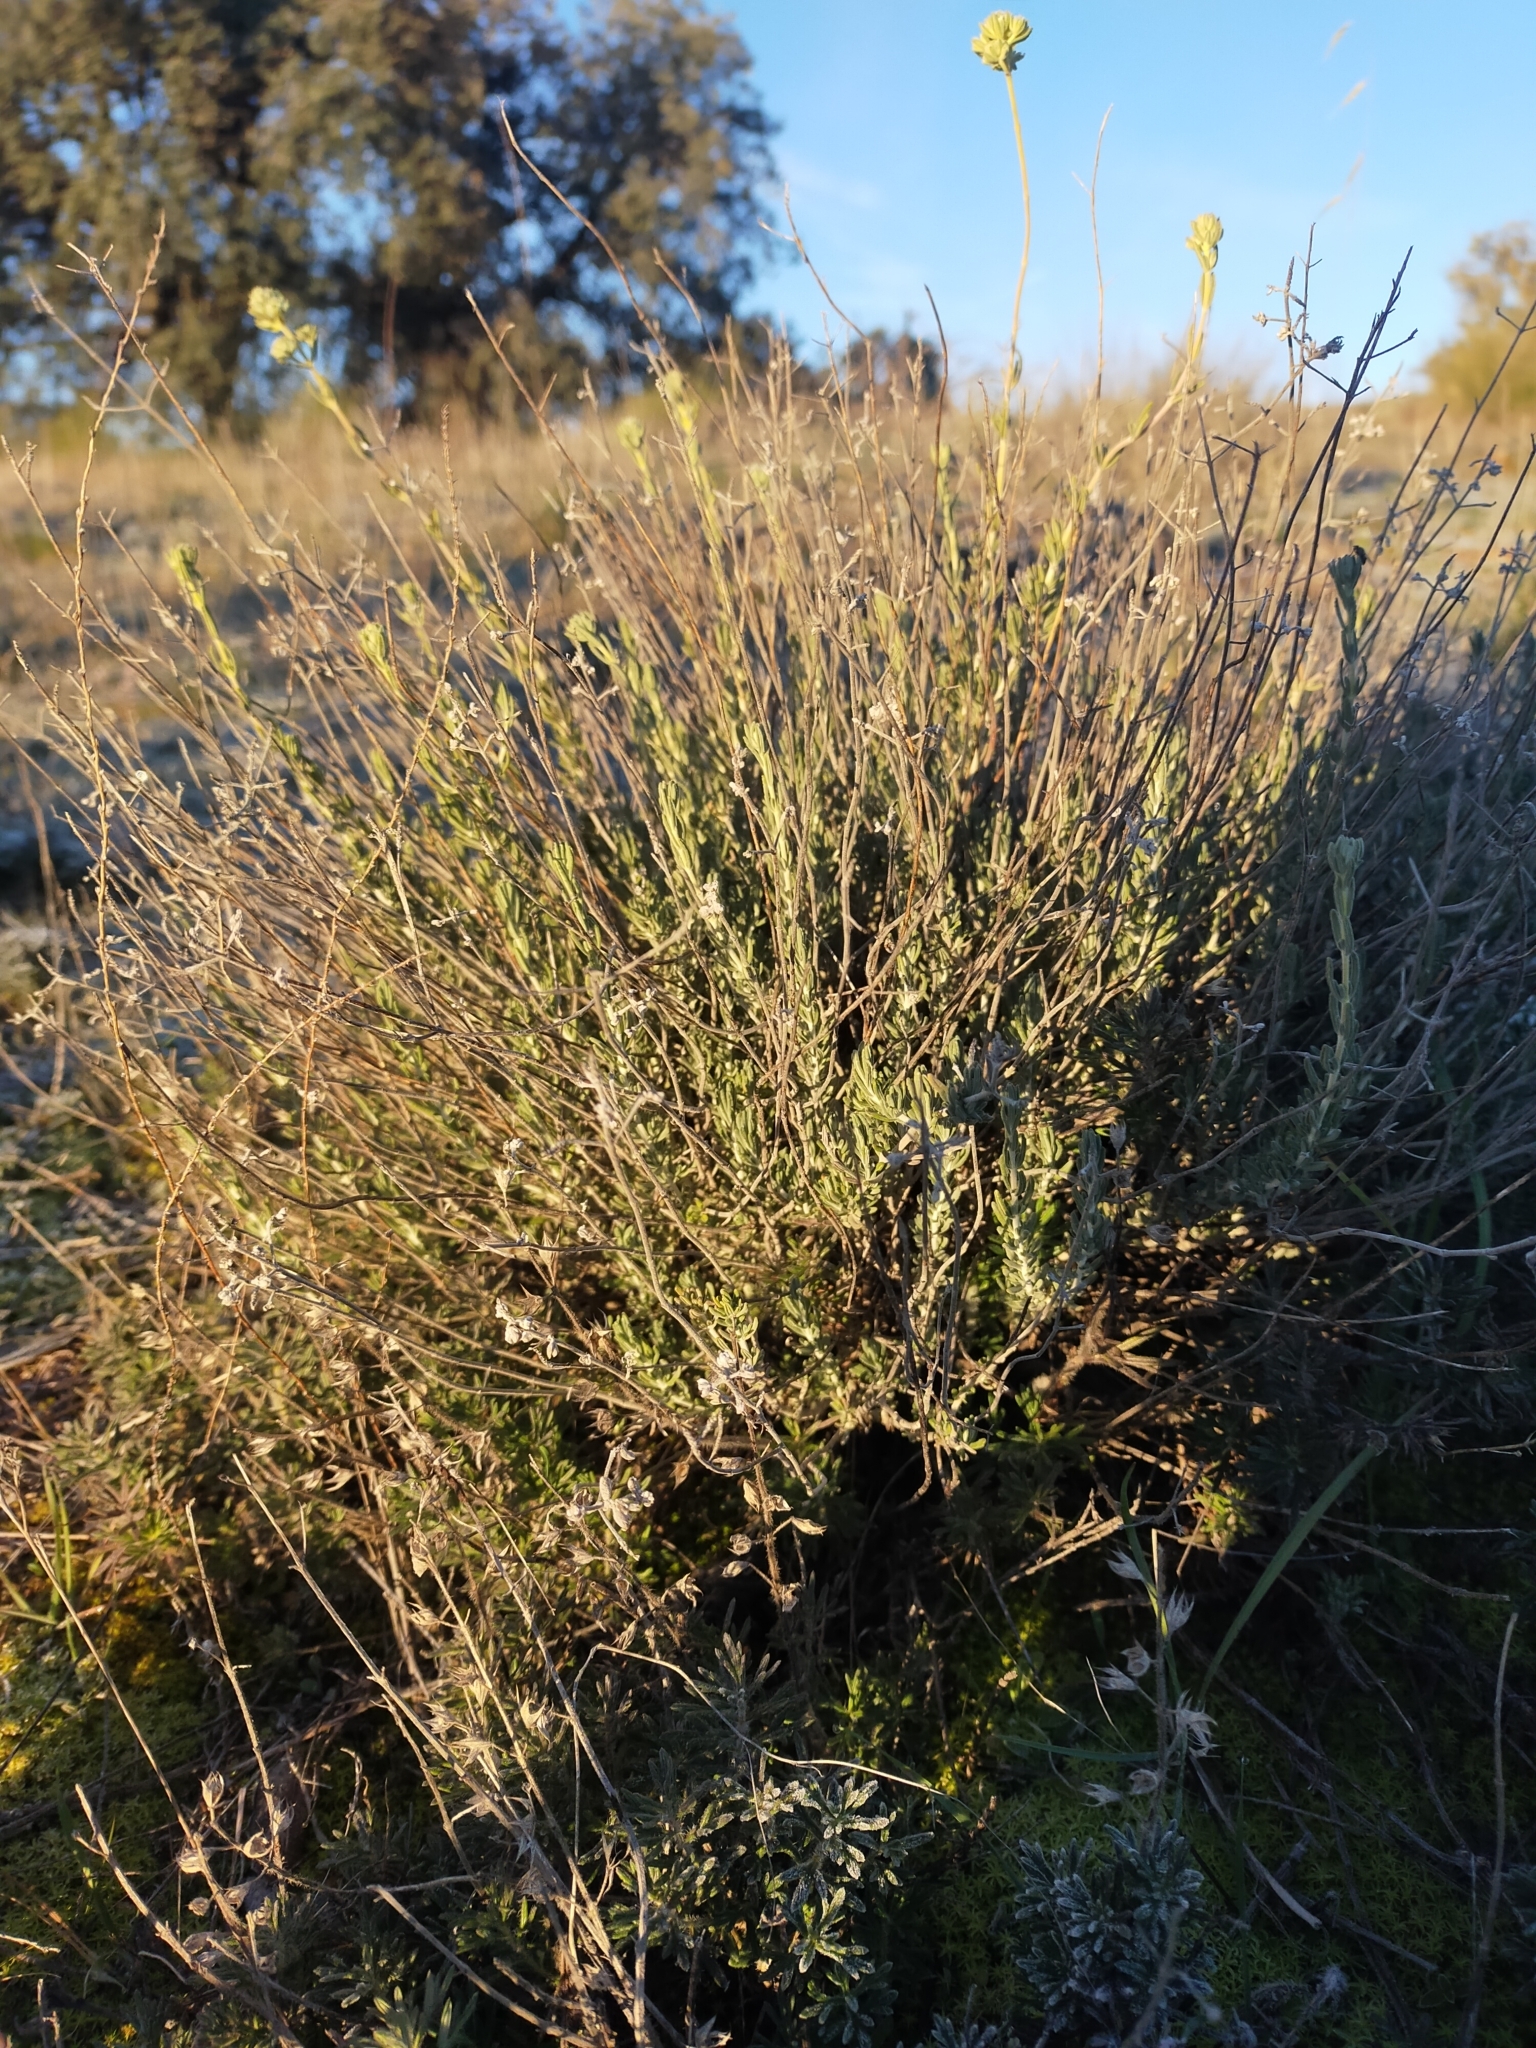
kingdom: Plantae
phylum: Tracheophyta
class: Magnoliopsida
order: Lamiales
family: Lamiaceae
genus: Teucrium
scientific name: Teucrium capitatum
